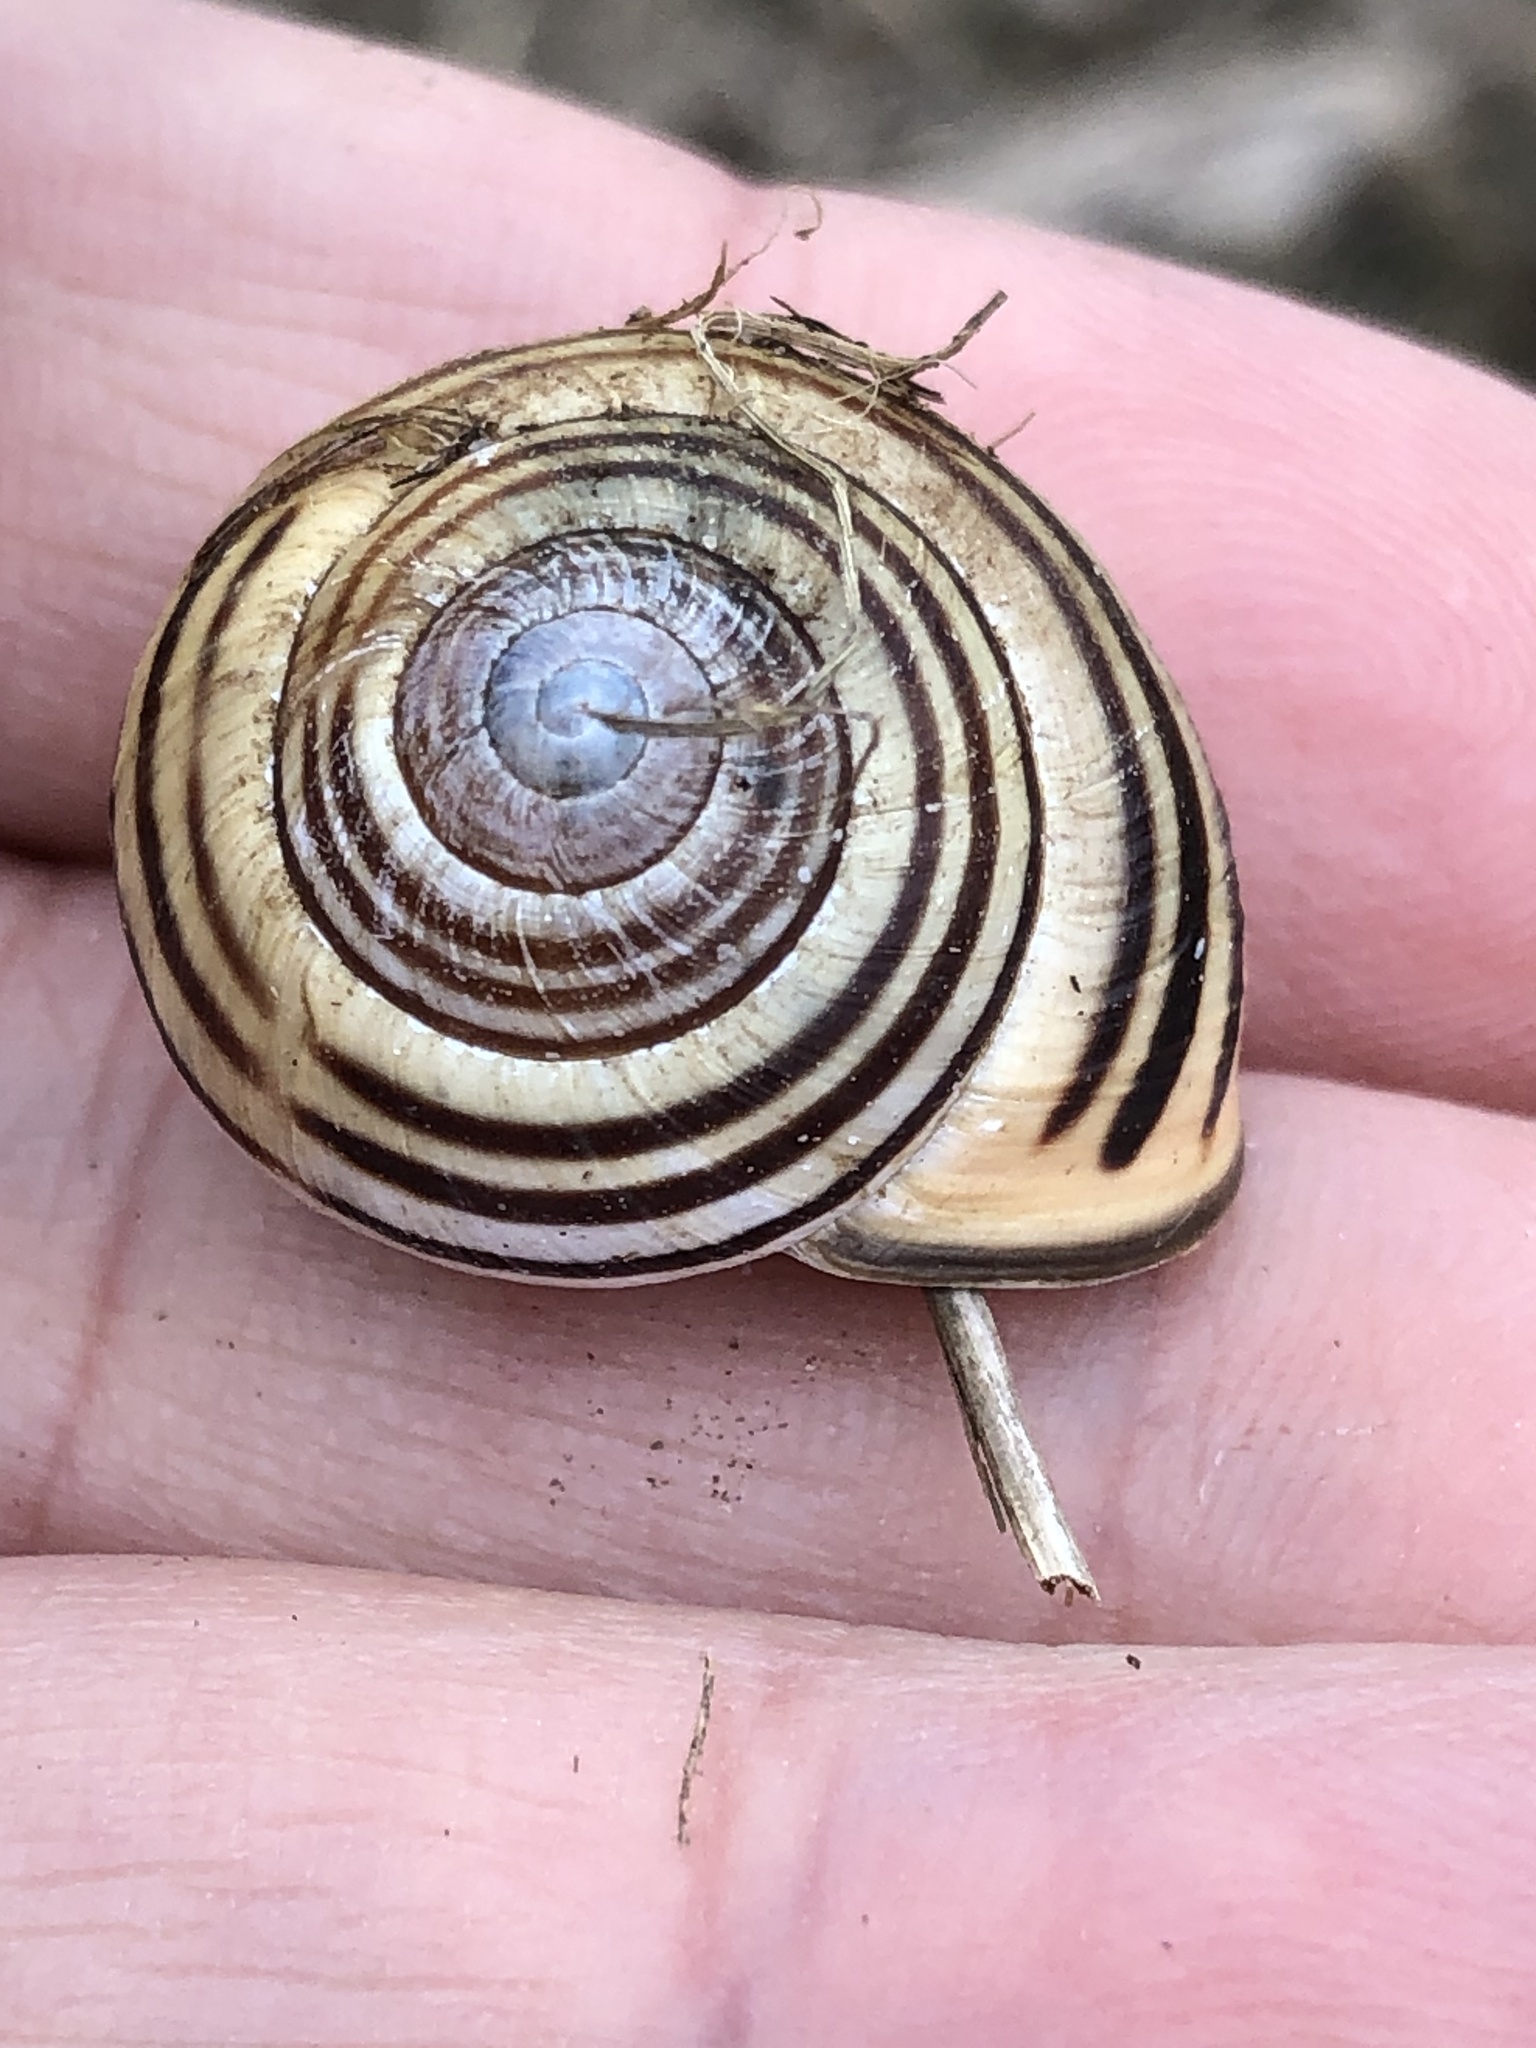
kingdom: Animalia
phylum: Mollusca
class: Gastropoda
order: Stylommatophora
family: Helicidae
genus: Cepaea
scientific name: Cepaea nemoralis
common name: Grovesnail
